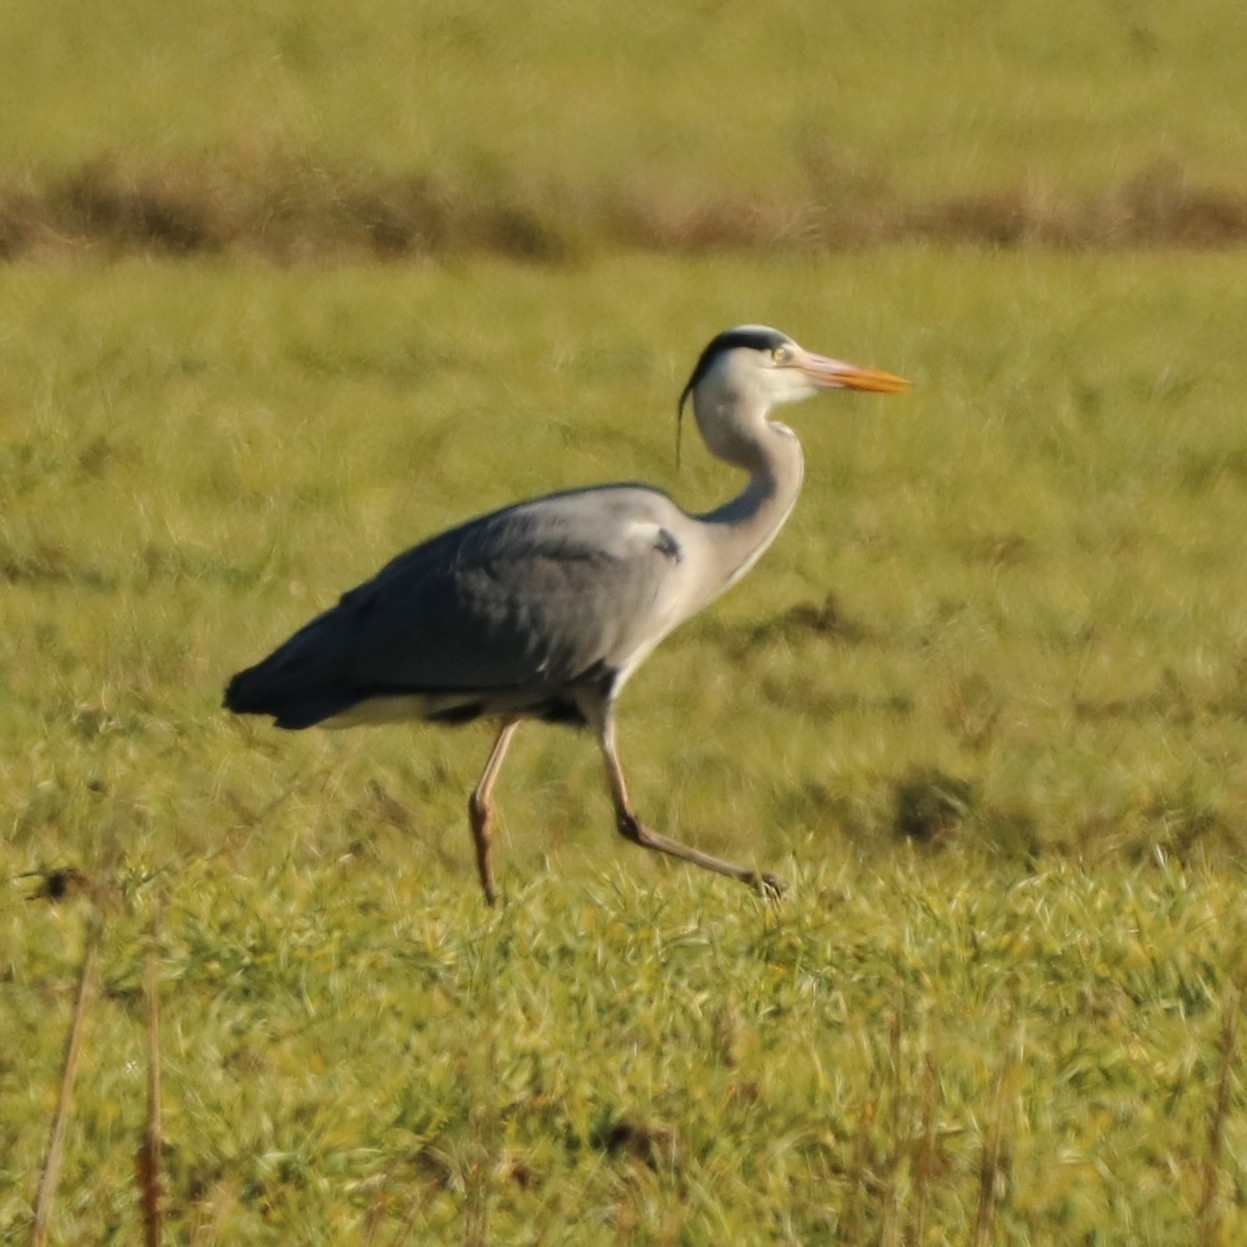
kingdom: Animalia
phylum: Chordata
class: Aves
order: Pelecaniformes
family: Ardeidae
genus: Ardea
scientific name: Ardea cinerea
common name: Grey heron
